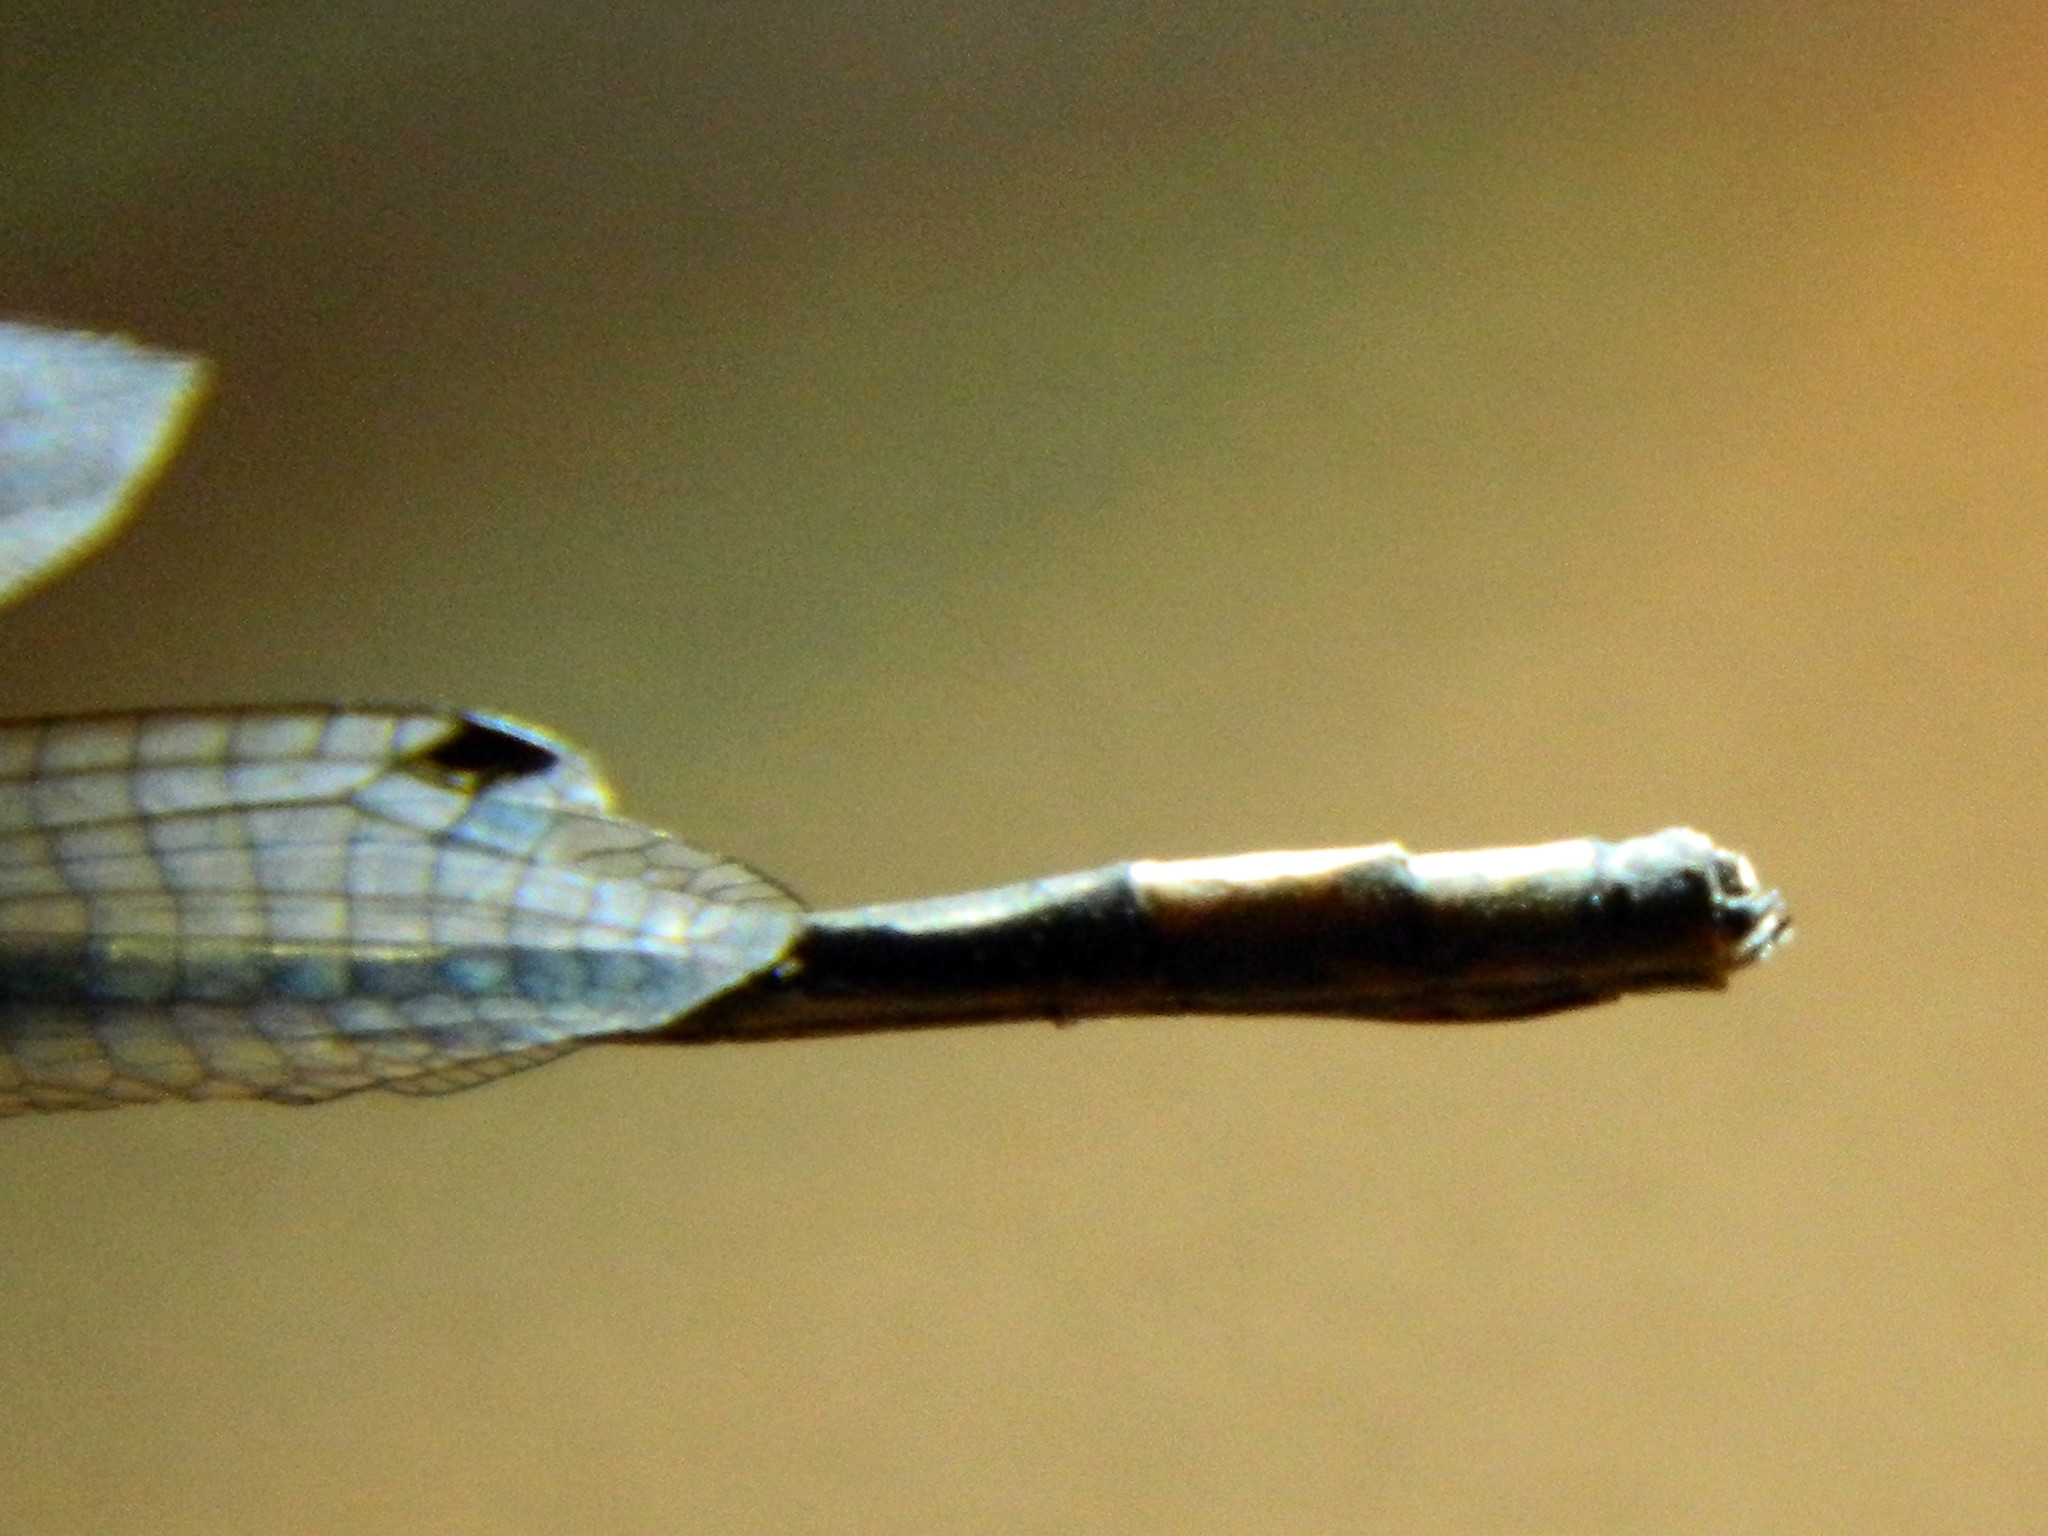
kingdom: Animalia
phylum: Arthropoda
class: Insecta
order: Odonata
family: Coenagrionidae
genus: Enallagma
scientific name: Enallagma annexum
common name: Northern bluet
